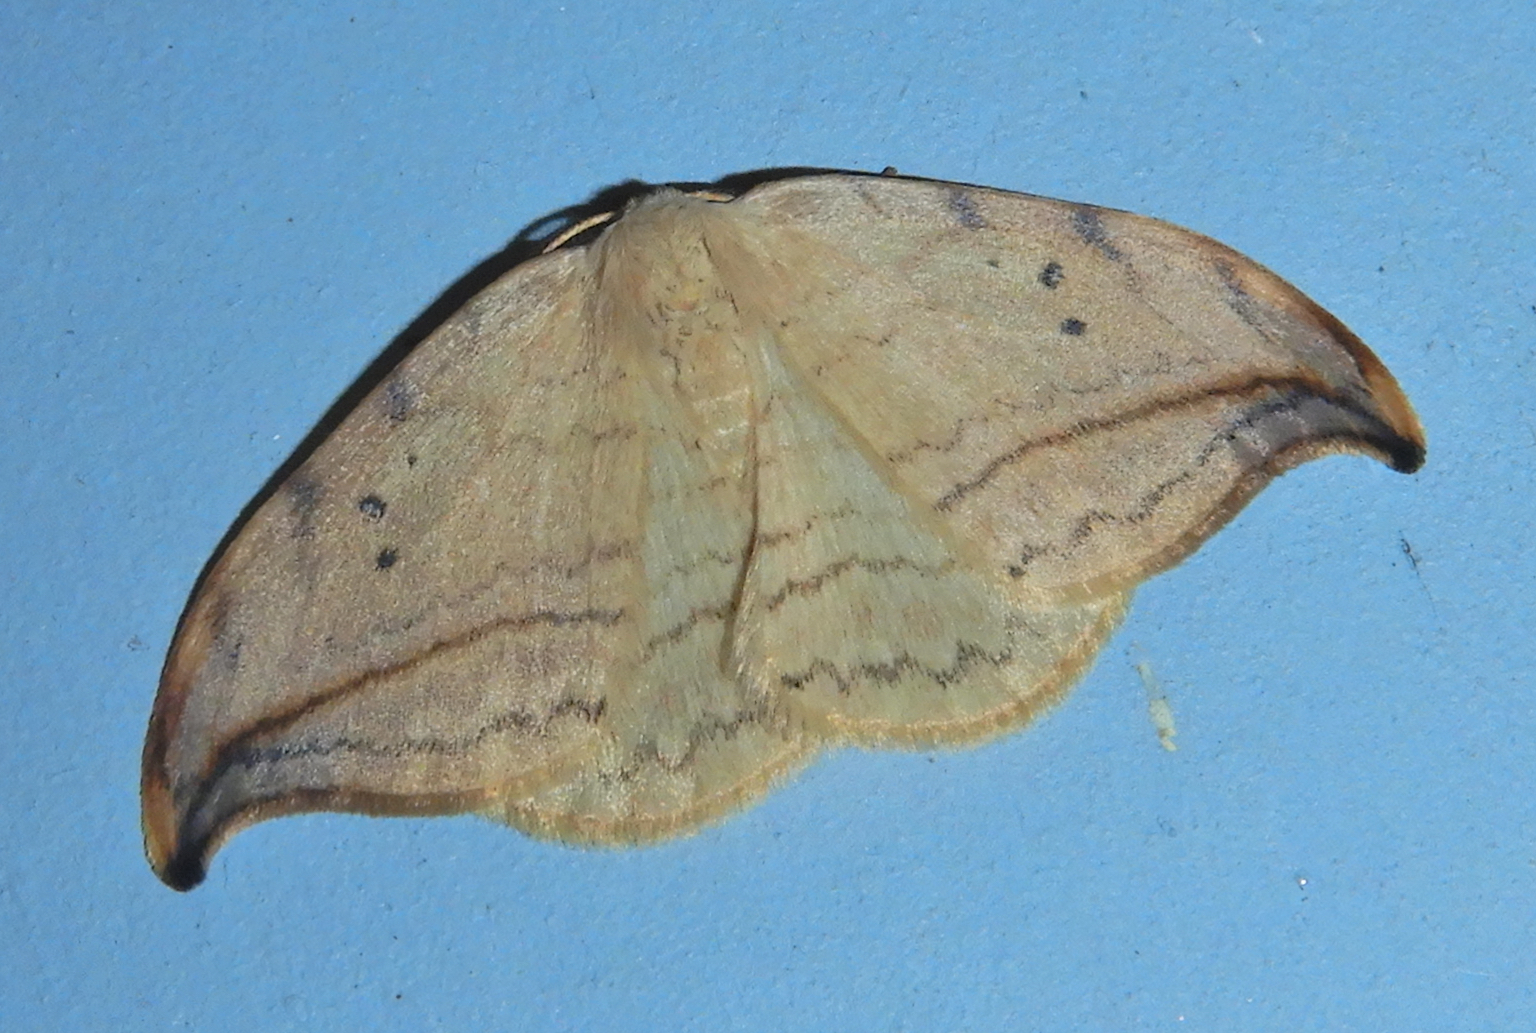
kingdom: Animalia
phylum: Arthropoda
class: Insecta
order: Lepidoptera
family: Drepanidae
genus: Drepana
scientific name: Drepana arcuata
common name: Arched hooktip moth
